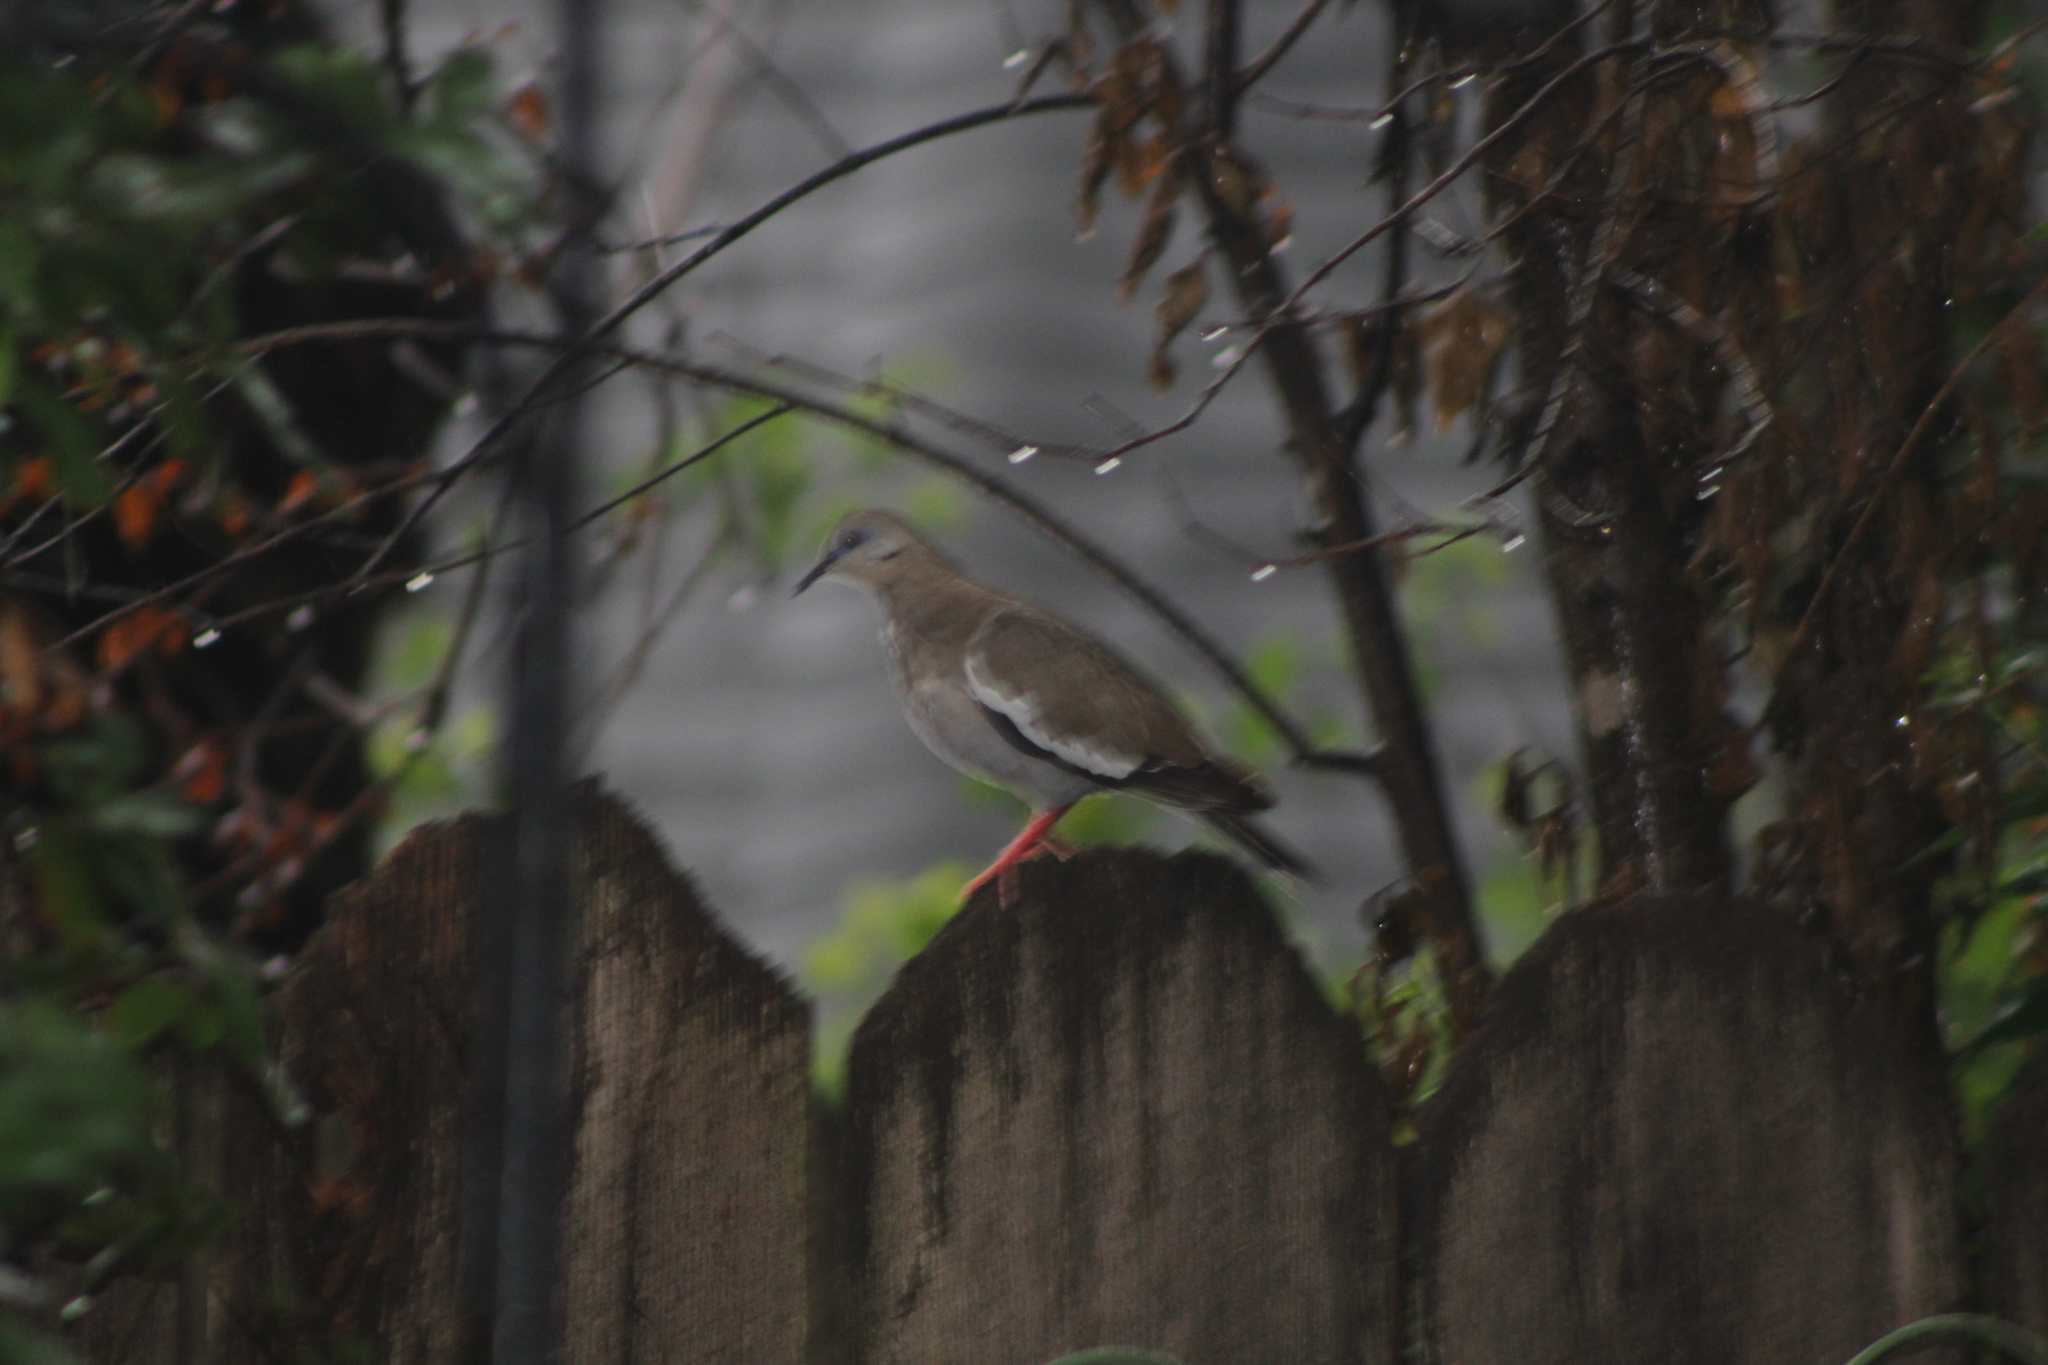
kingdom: Animalia
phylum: Chordata
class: Aves
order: Columbiformes
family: Columbidae
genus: Zenaida
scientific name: Zenaida asiatica
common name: White-winged dove
